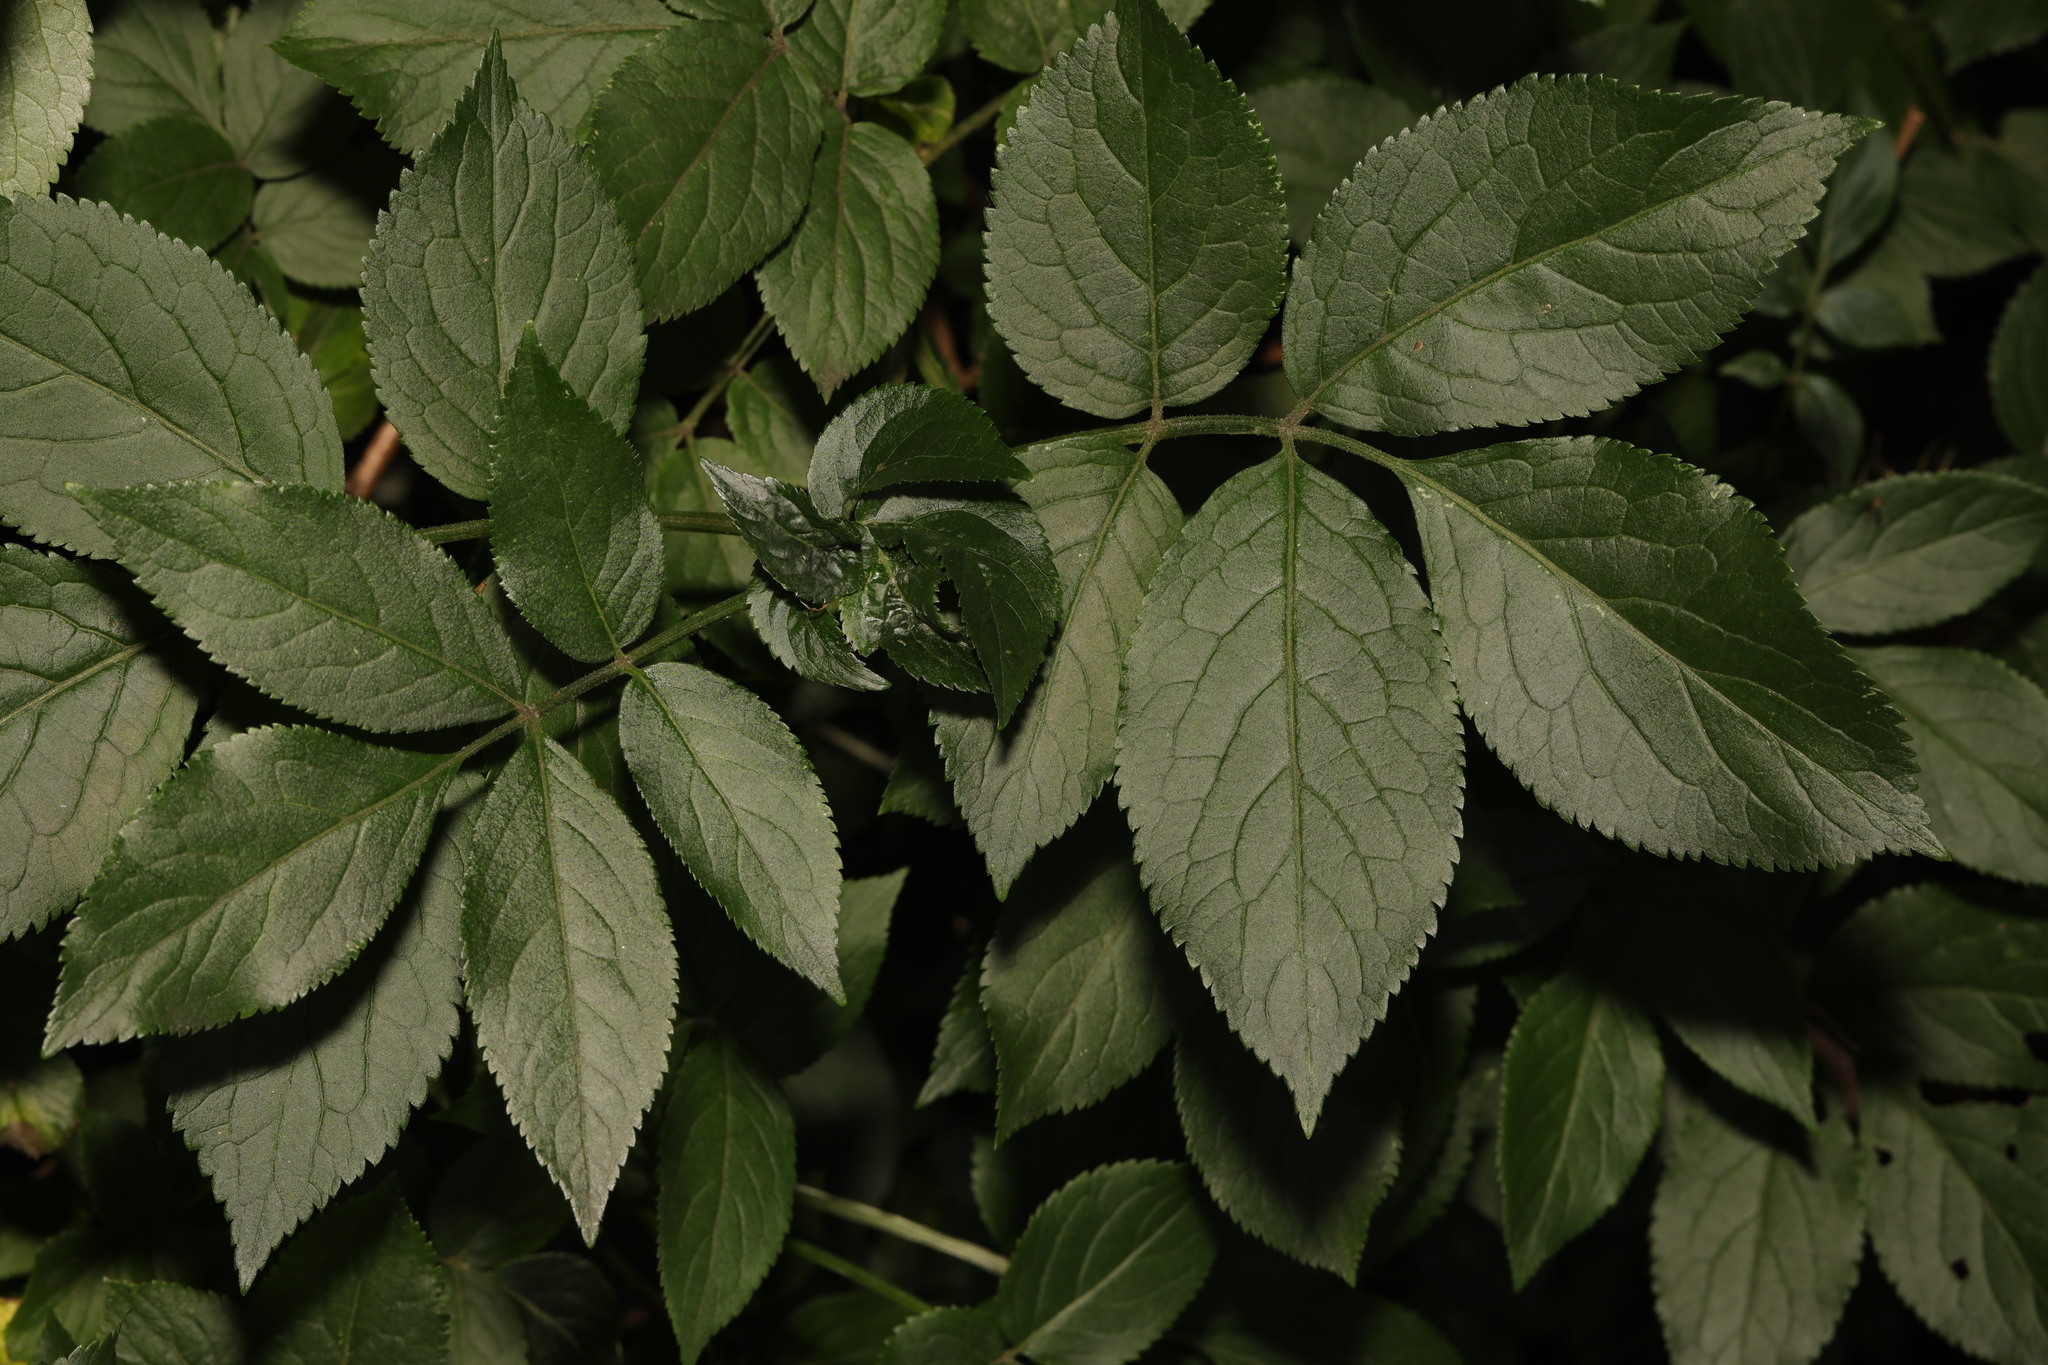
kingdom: Plantae
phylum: Tracheophyta
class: Magnoliopsida
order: Dipsacales
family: Viburnaceae
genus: Sambucus
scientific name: Sambucus nigra
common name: Elder
